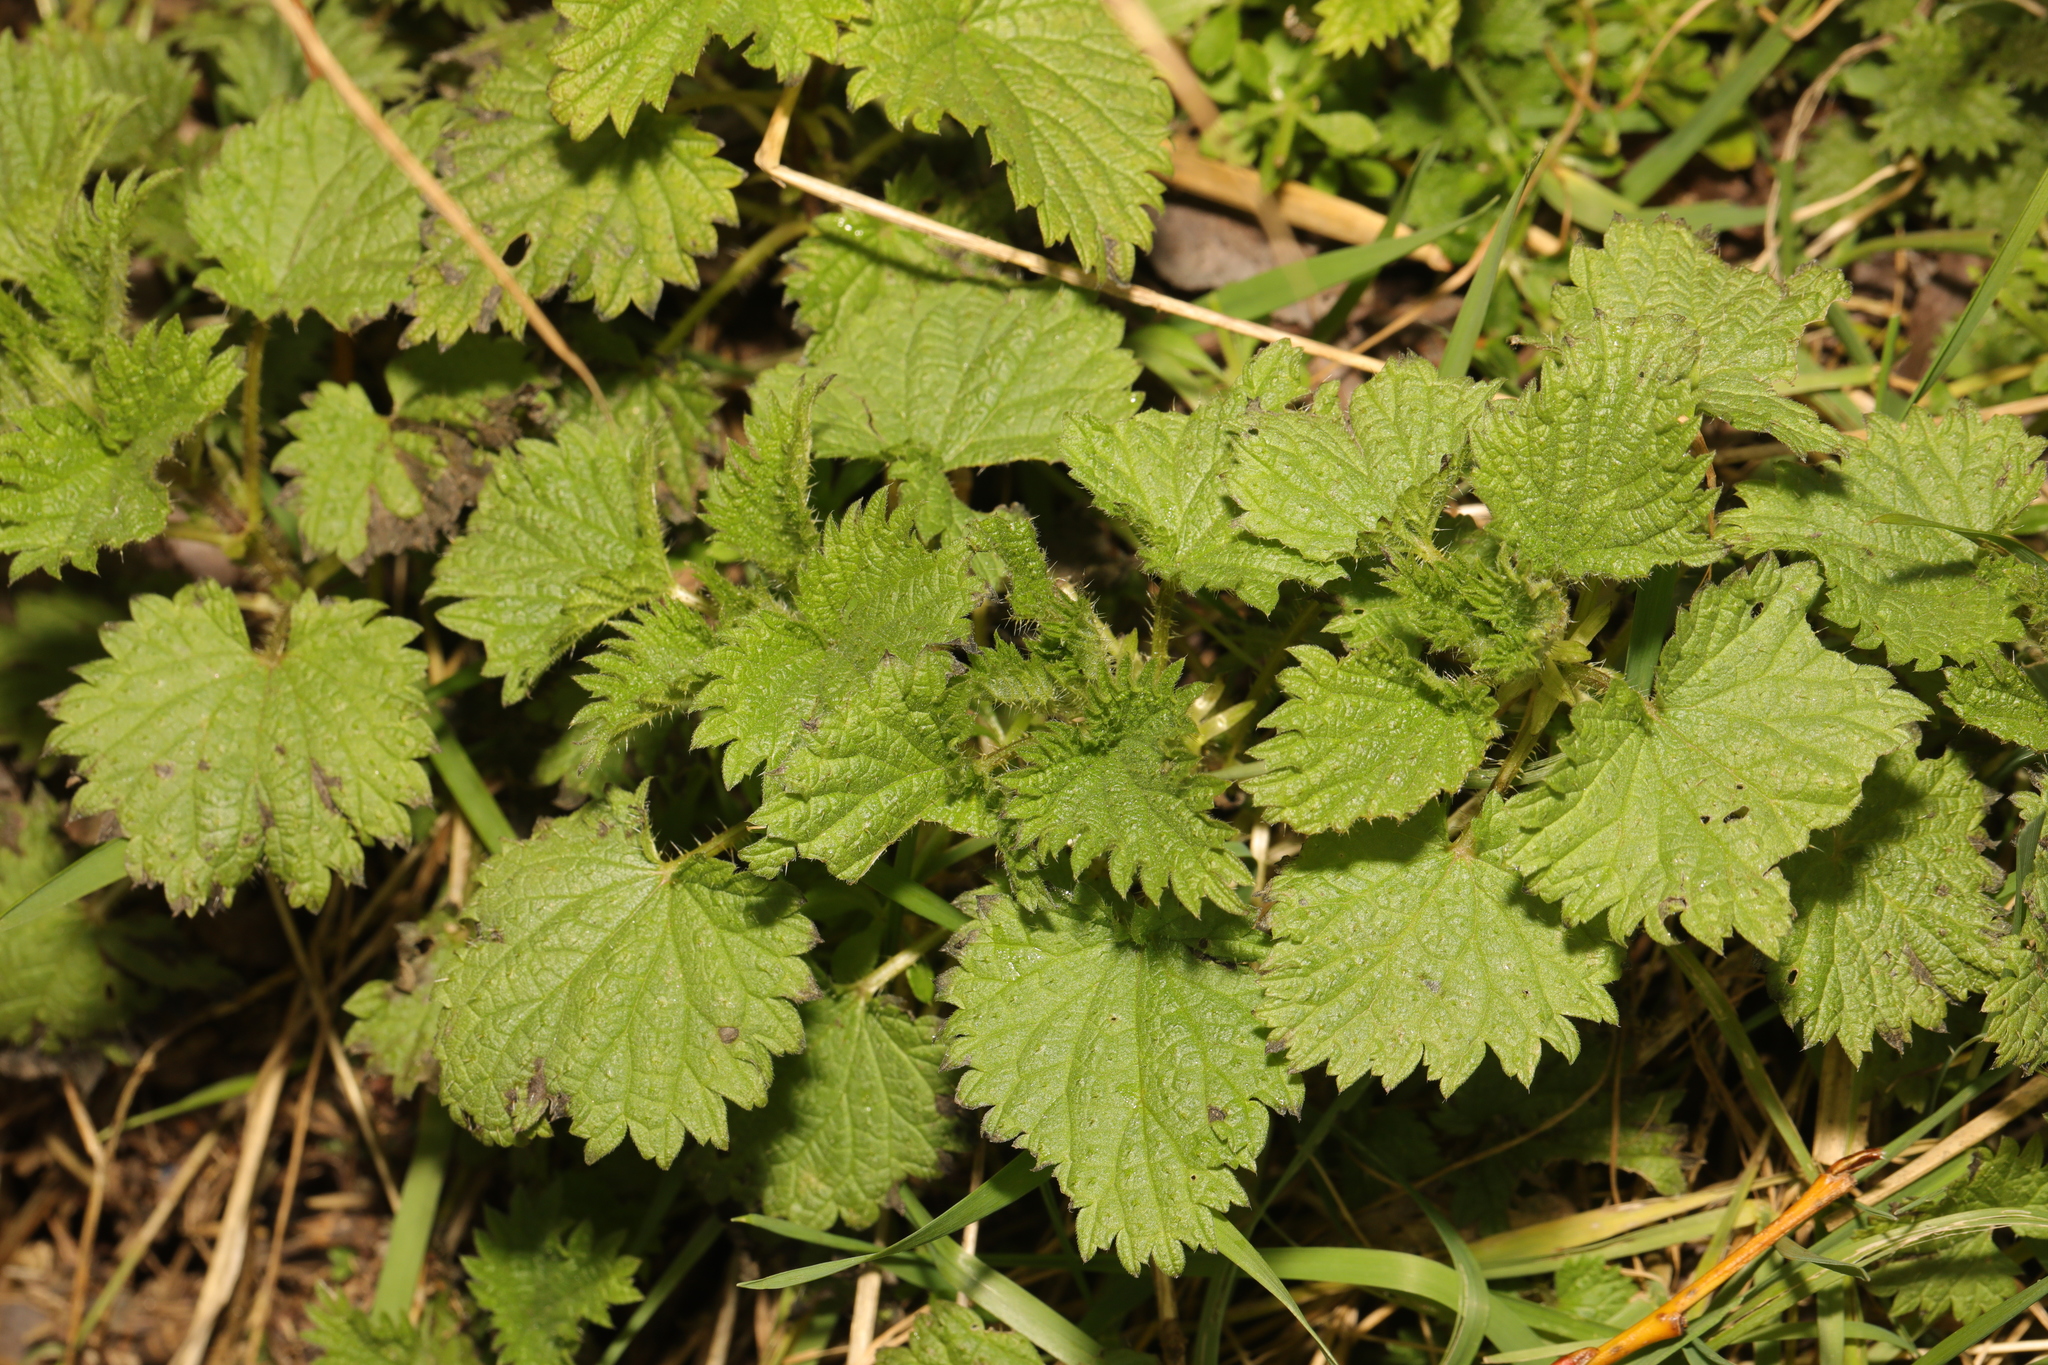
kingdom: Plantae
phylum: Tracheophyta
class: Magnoliopsida
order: Rosales
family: Urticaceae
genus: Urtica
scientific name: Urtica dioica
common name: Common nettle
